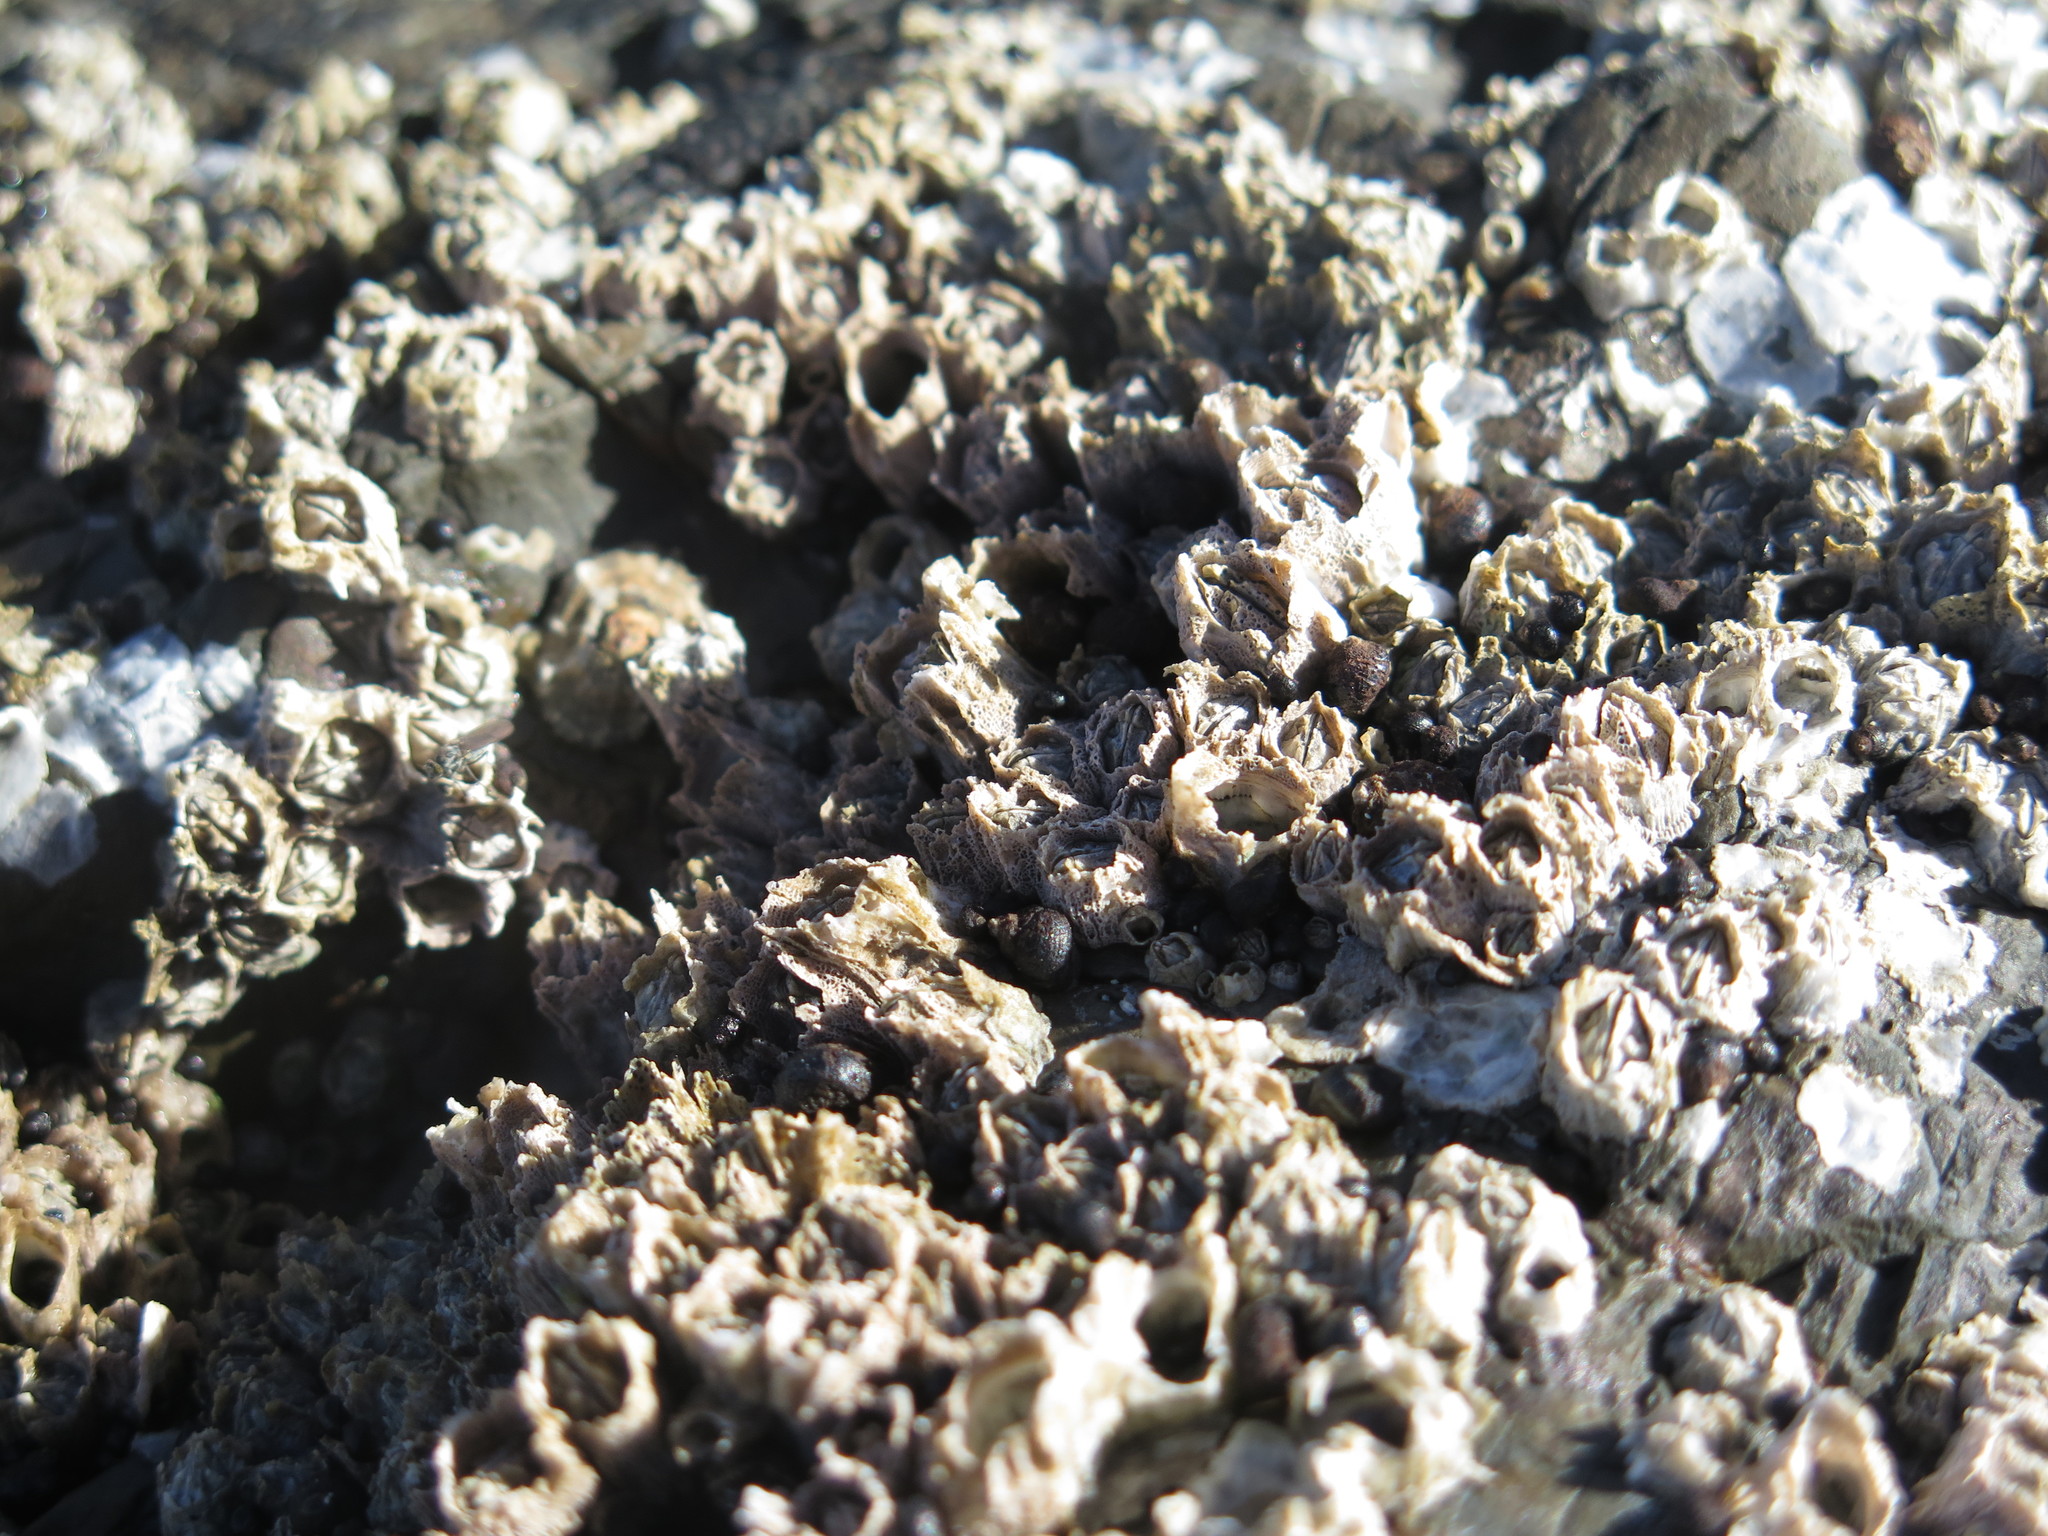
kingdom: Animalia
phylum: Arthropoda
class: Maxillopoda
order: Sessilia
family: Chthamalidae
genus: Octomeris
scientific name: Octomeris angulosa
